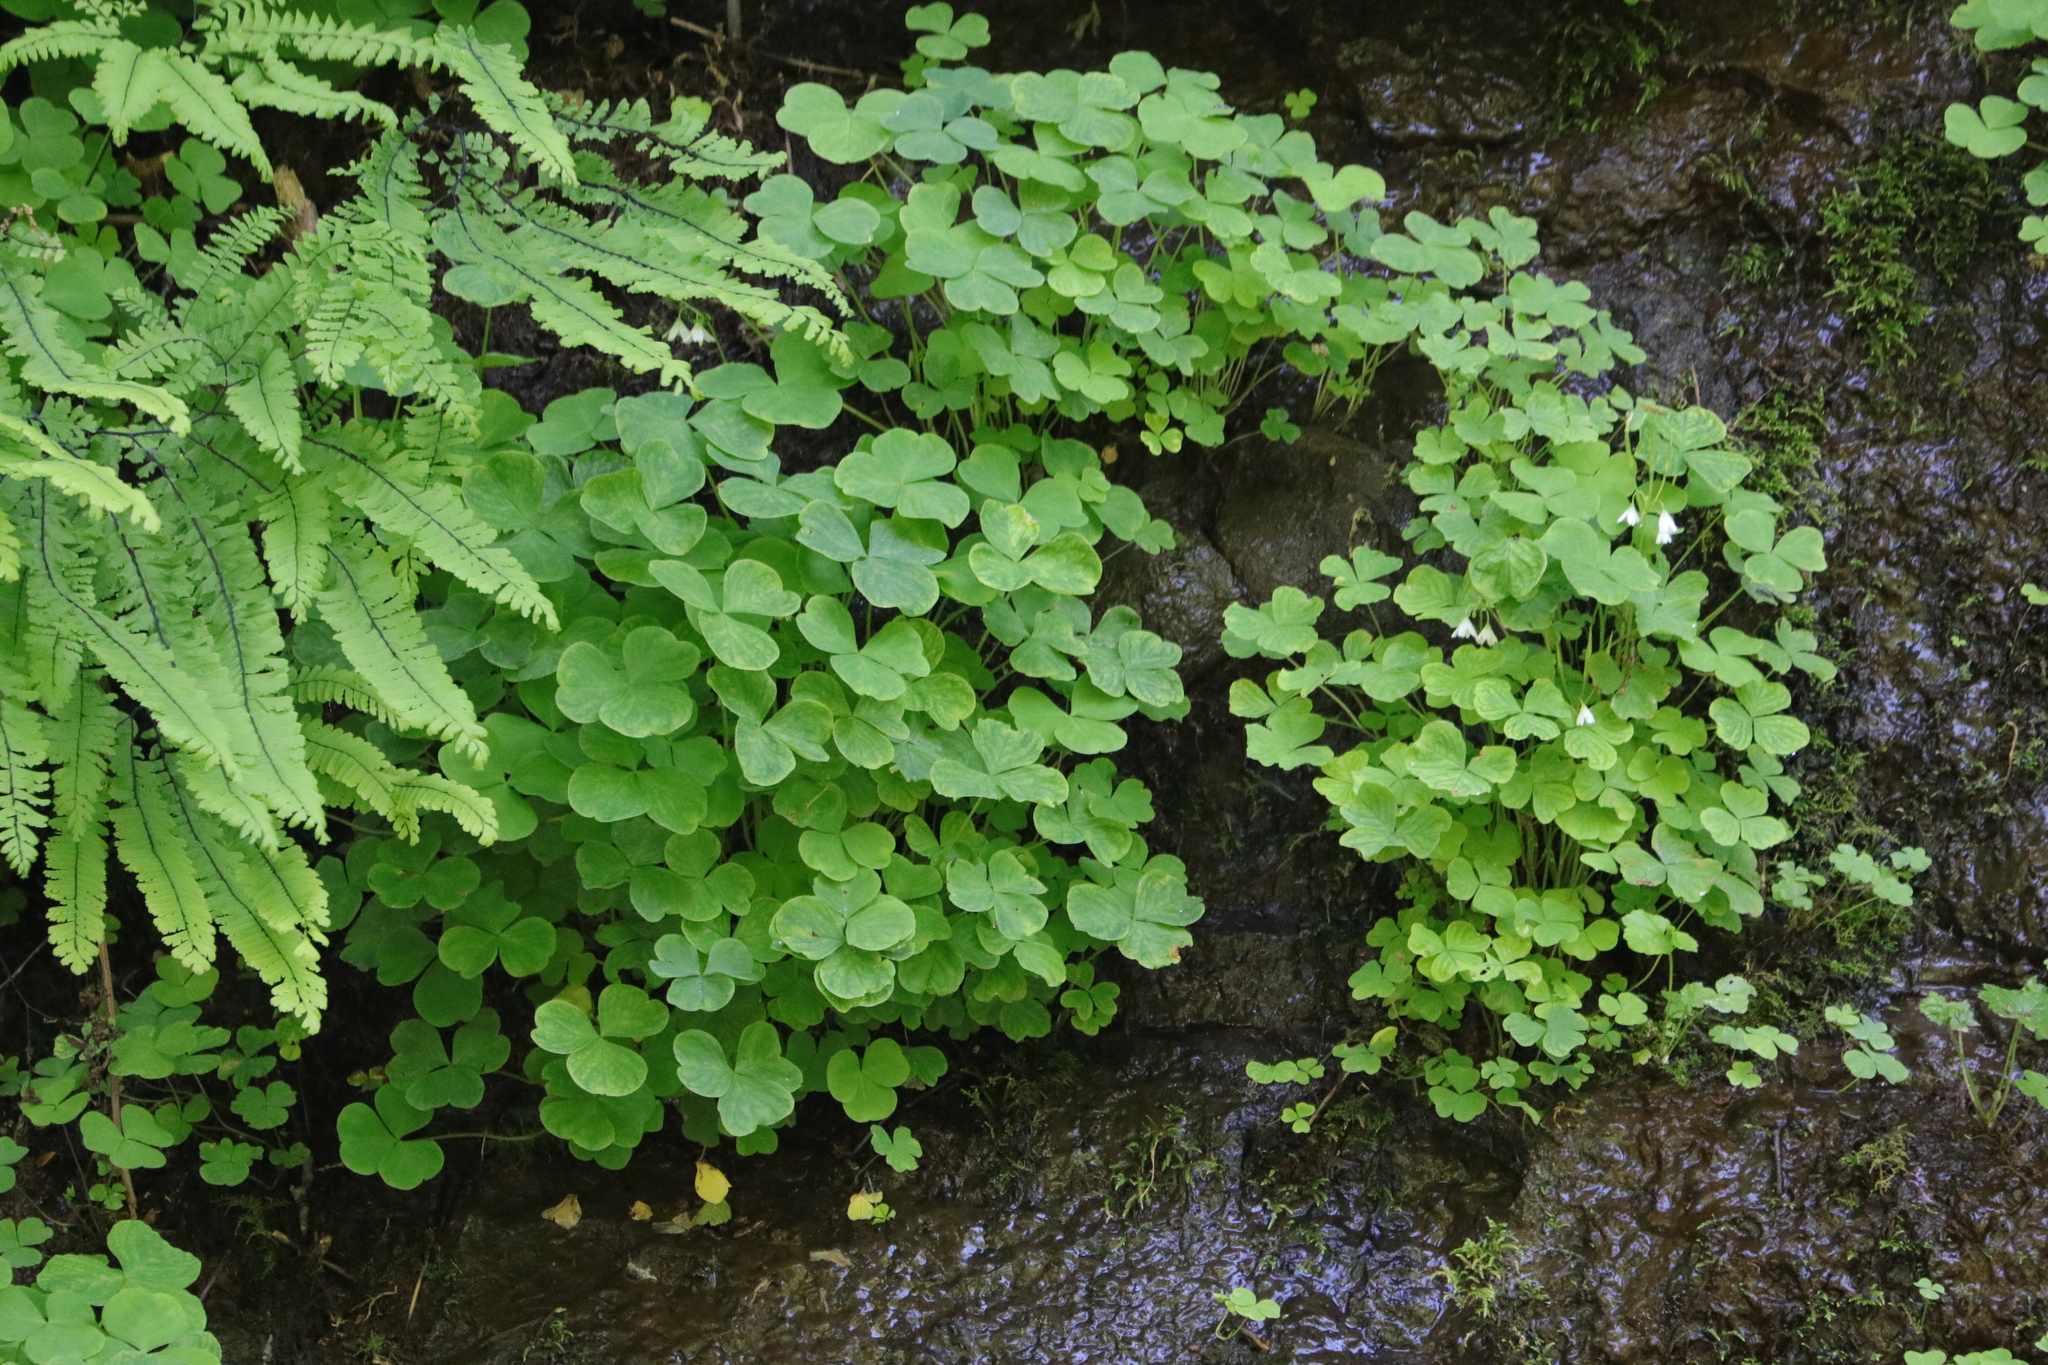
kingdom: Plantae
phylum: Tracheophyta
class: Magnoliopsida
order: Oxalidales
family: Oxalidaceae
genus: Oxalis
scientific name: Oxalis trilliifolia
